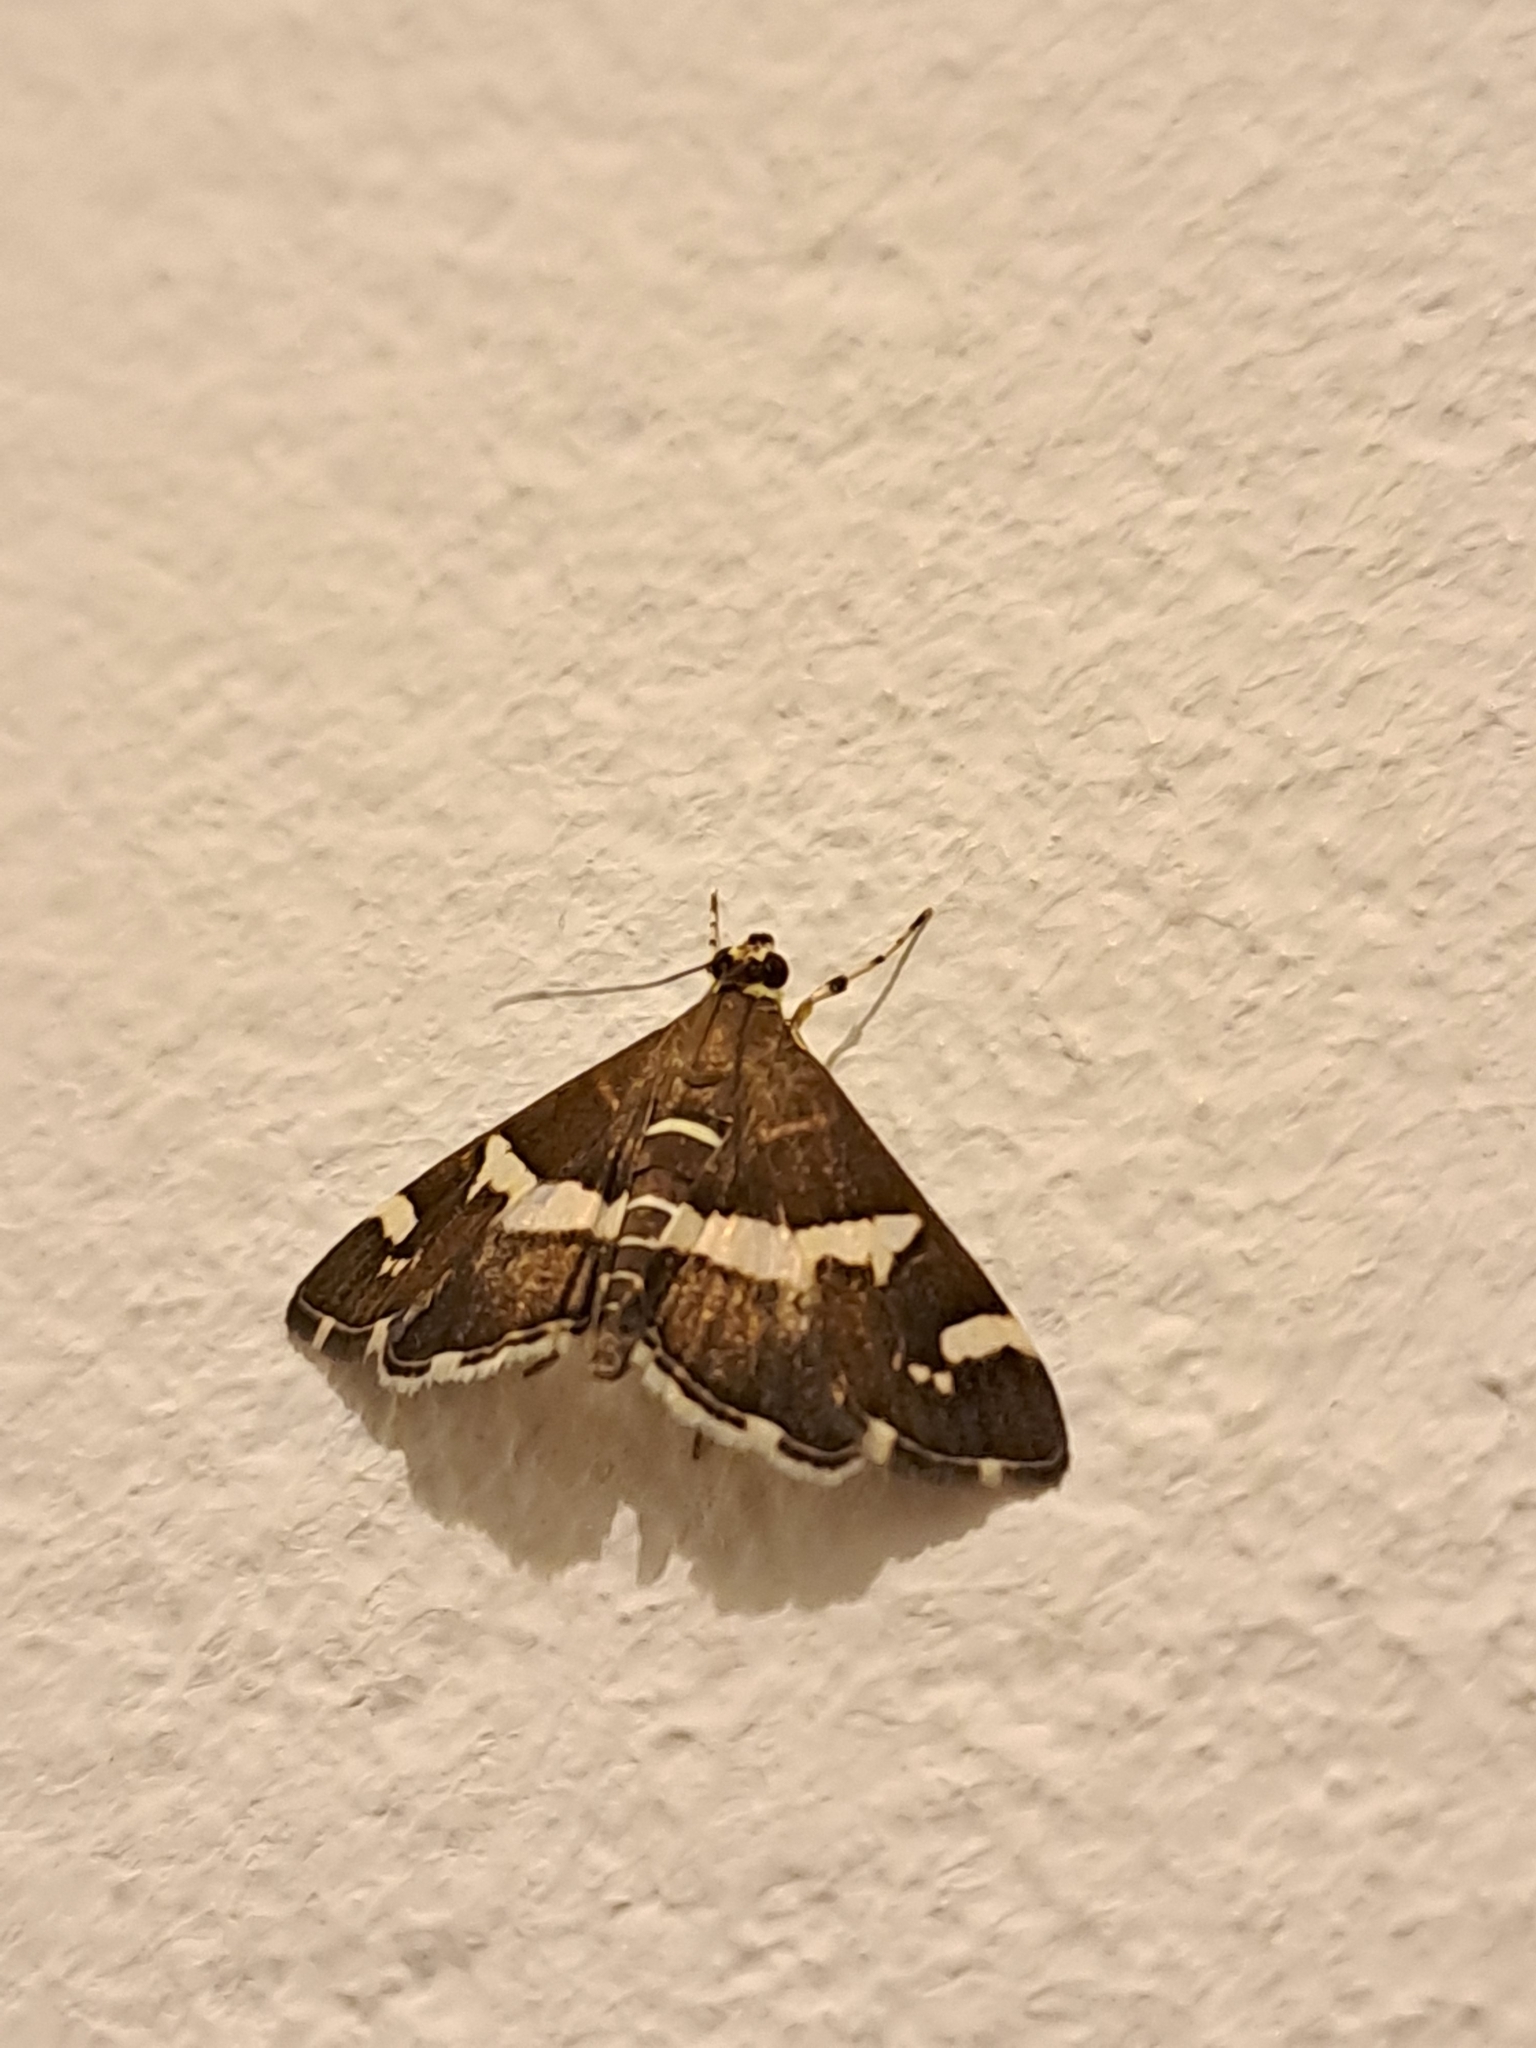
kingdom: Animalia
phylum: Arthropoda
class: Insecta
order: Lepidoptera
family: Crambidae
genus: Spoladea
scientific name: Spoladea recurvalis
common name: Beet webworm moth
